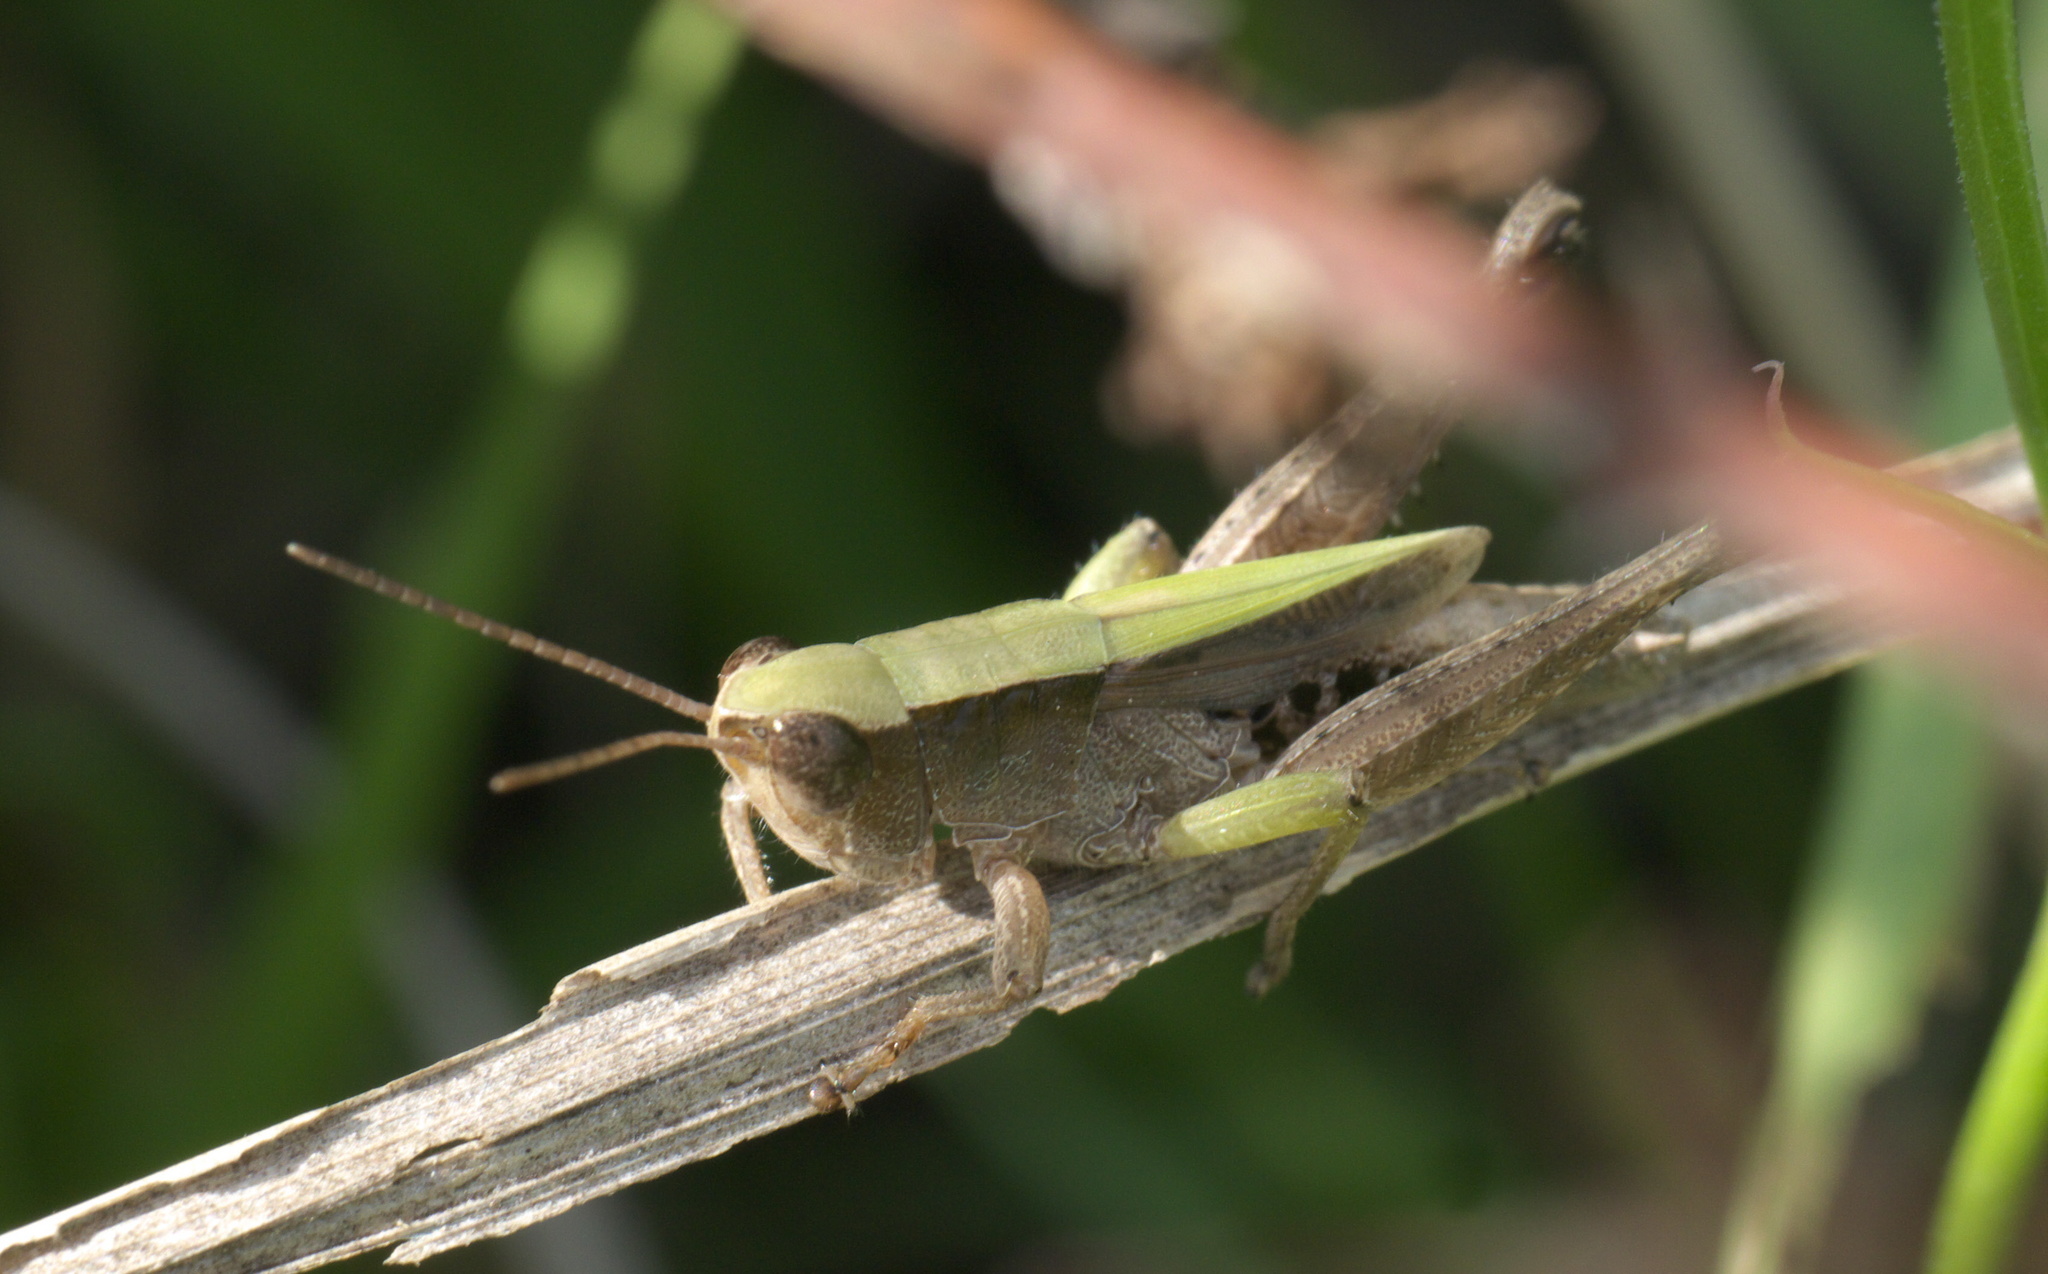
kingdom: Animalia
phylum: Arthropoda
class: Insecta
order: Orthoptera
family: Acrididae
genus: Dichromorpha
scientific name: Dichromorpha viridis
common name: Short-winged green grasshopper
